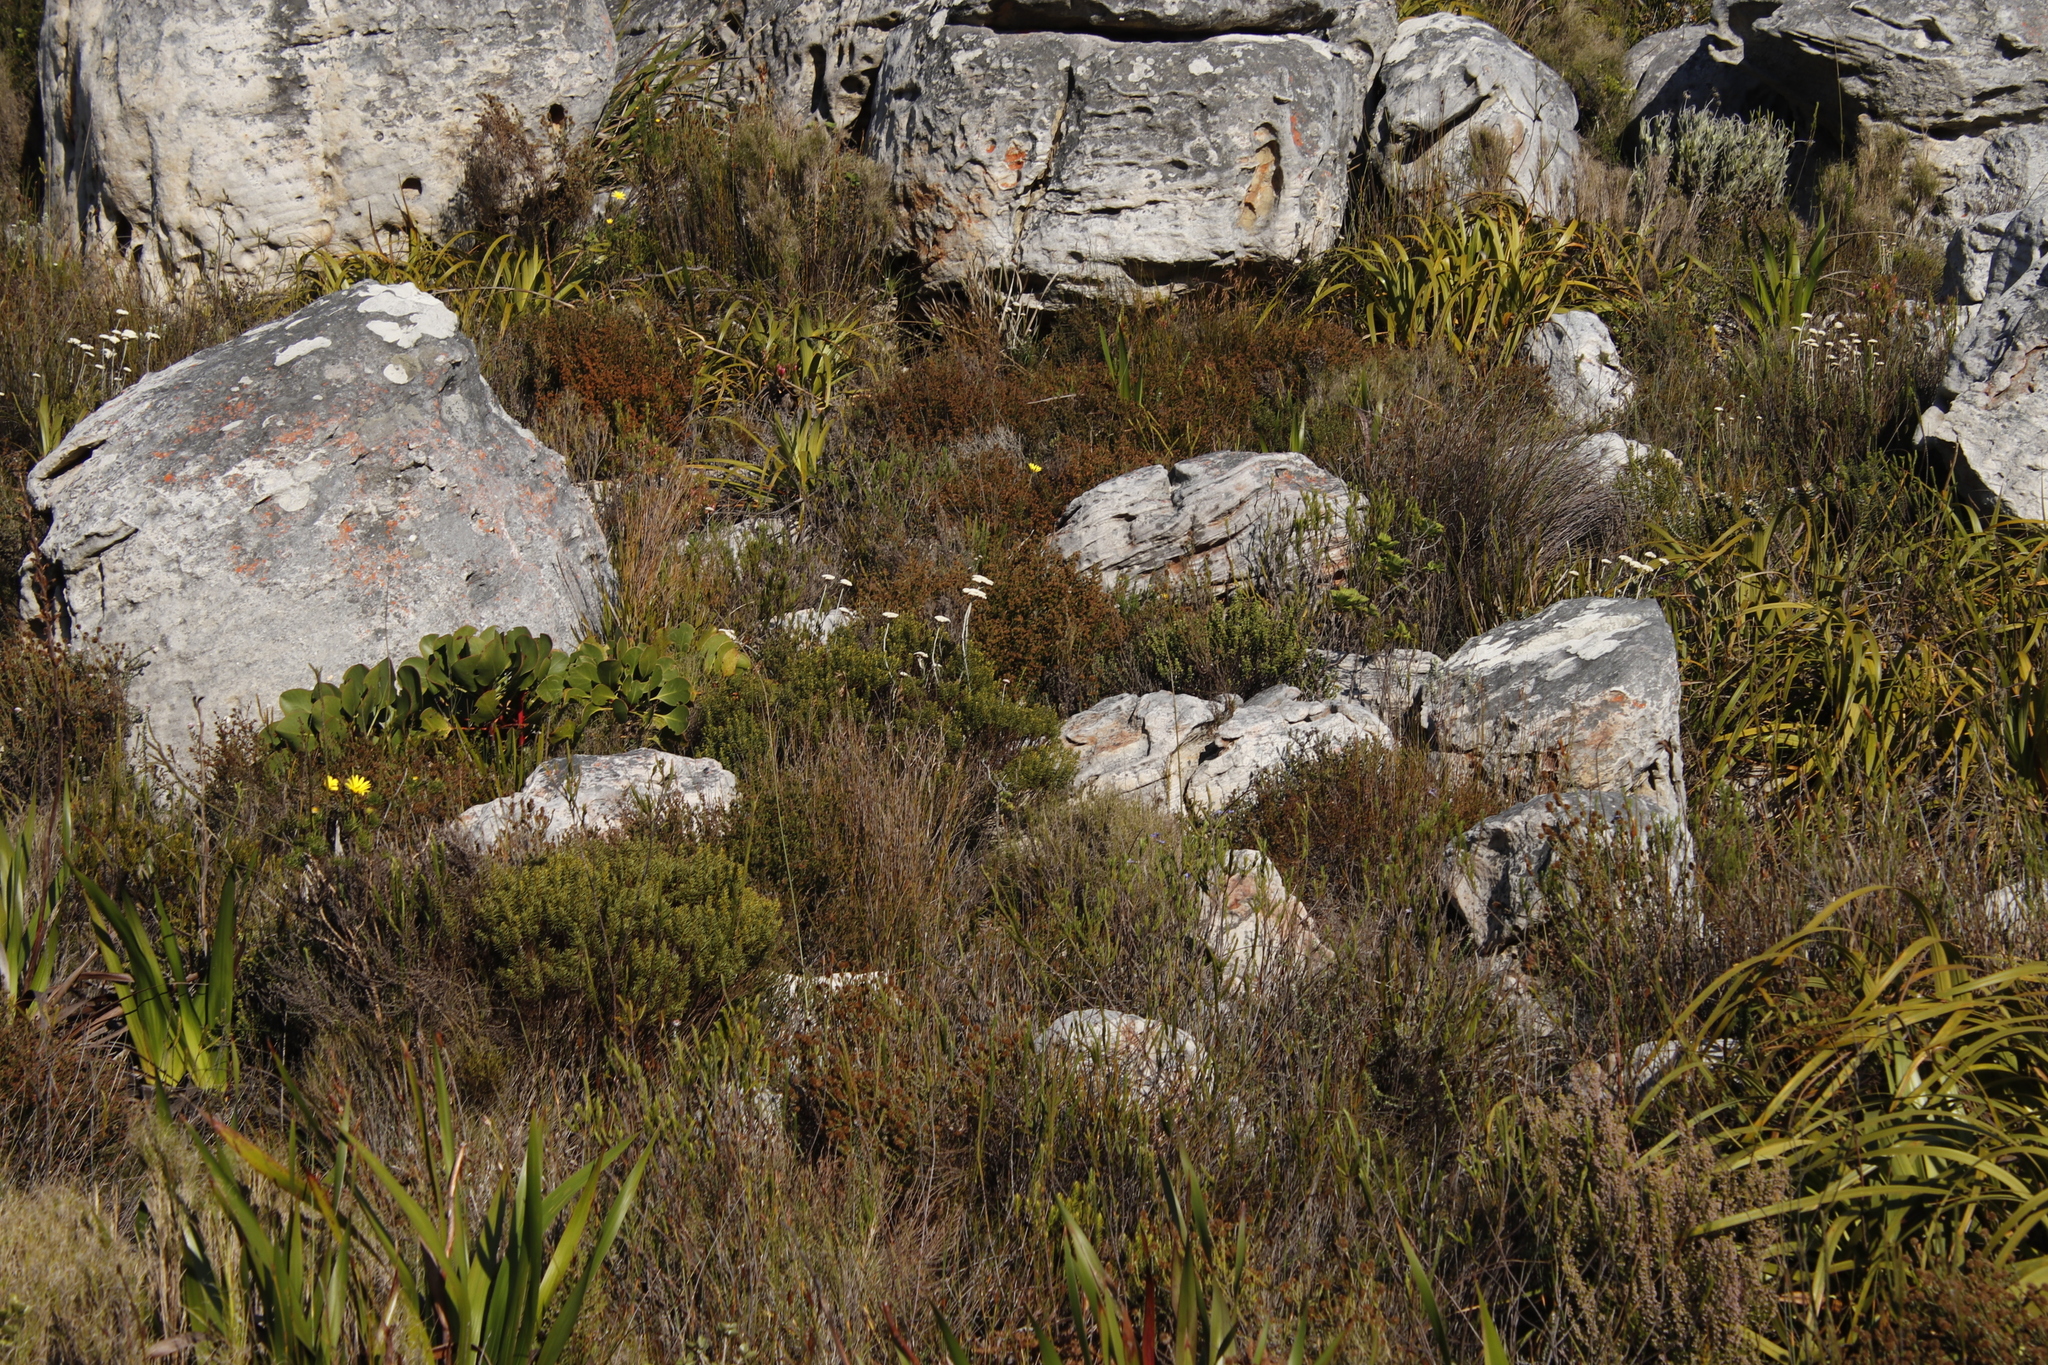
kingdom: Plantae
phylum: Tracheophyta
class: Magnoliopsida
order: Asterales
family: Asteraceae
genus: Anaxeton
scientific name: Anaxeton arborescens
